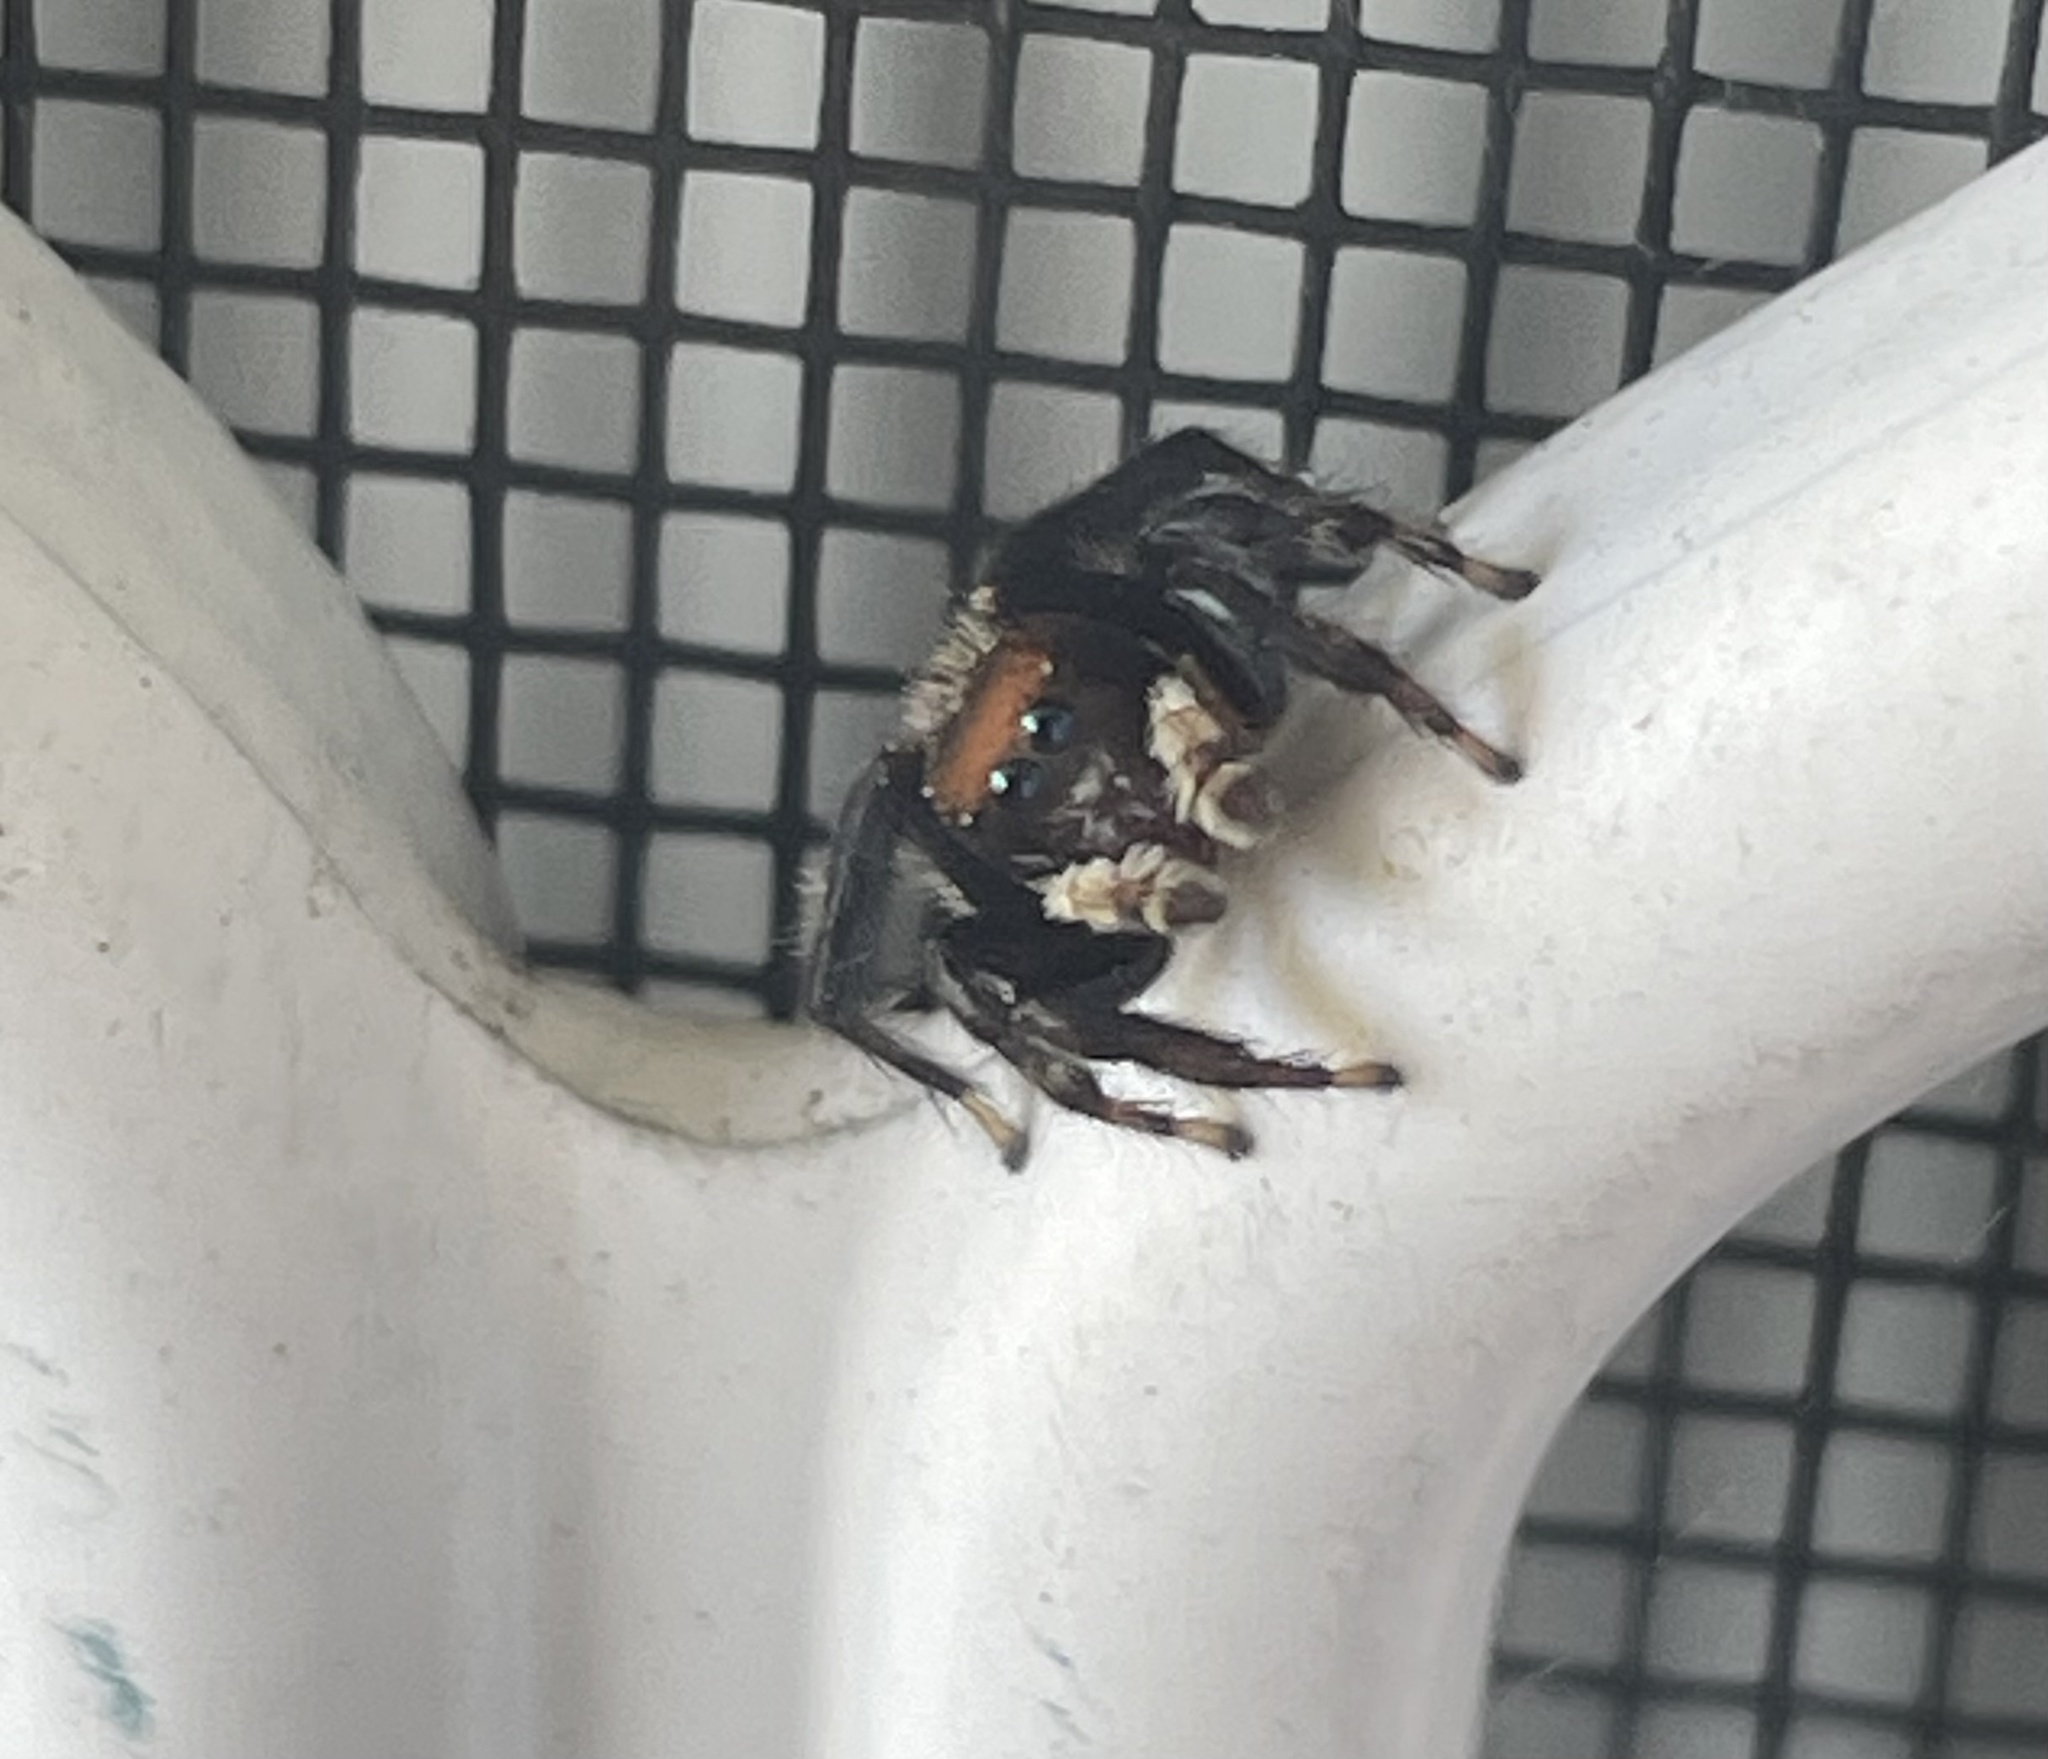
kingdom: Animalia
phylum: Arthropoda
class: Arachnida
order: Araneae
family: Salticidae
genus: Maratus
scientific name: Maratus griseus
